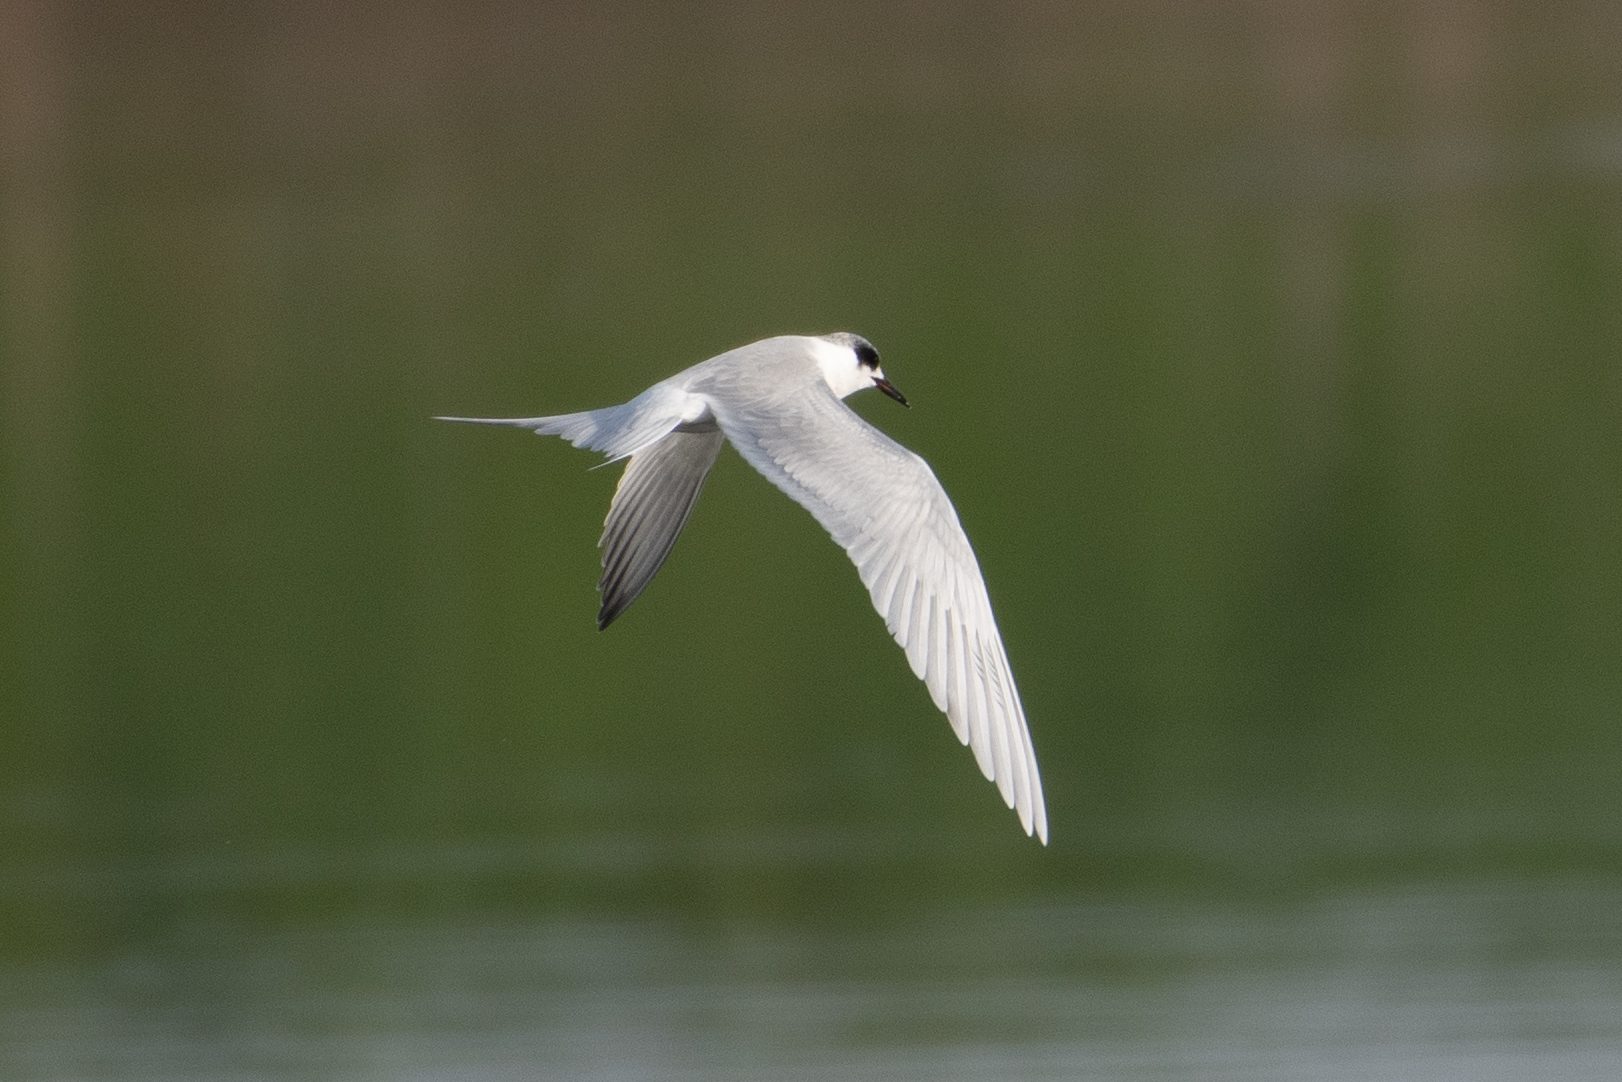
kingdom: Animalia
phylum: Chordata
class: Aves
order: Charadriiformes
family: Laridae
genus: Sterna
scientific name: Sterna forsteri
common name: Forster's tern
